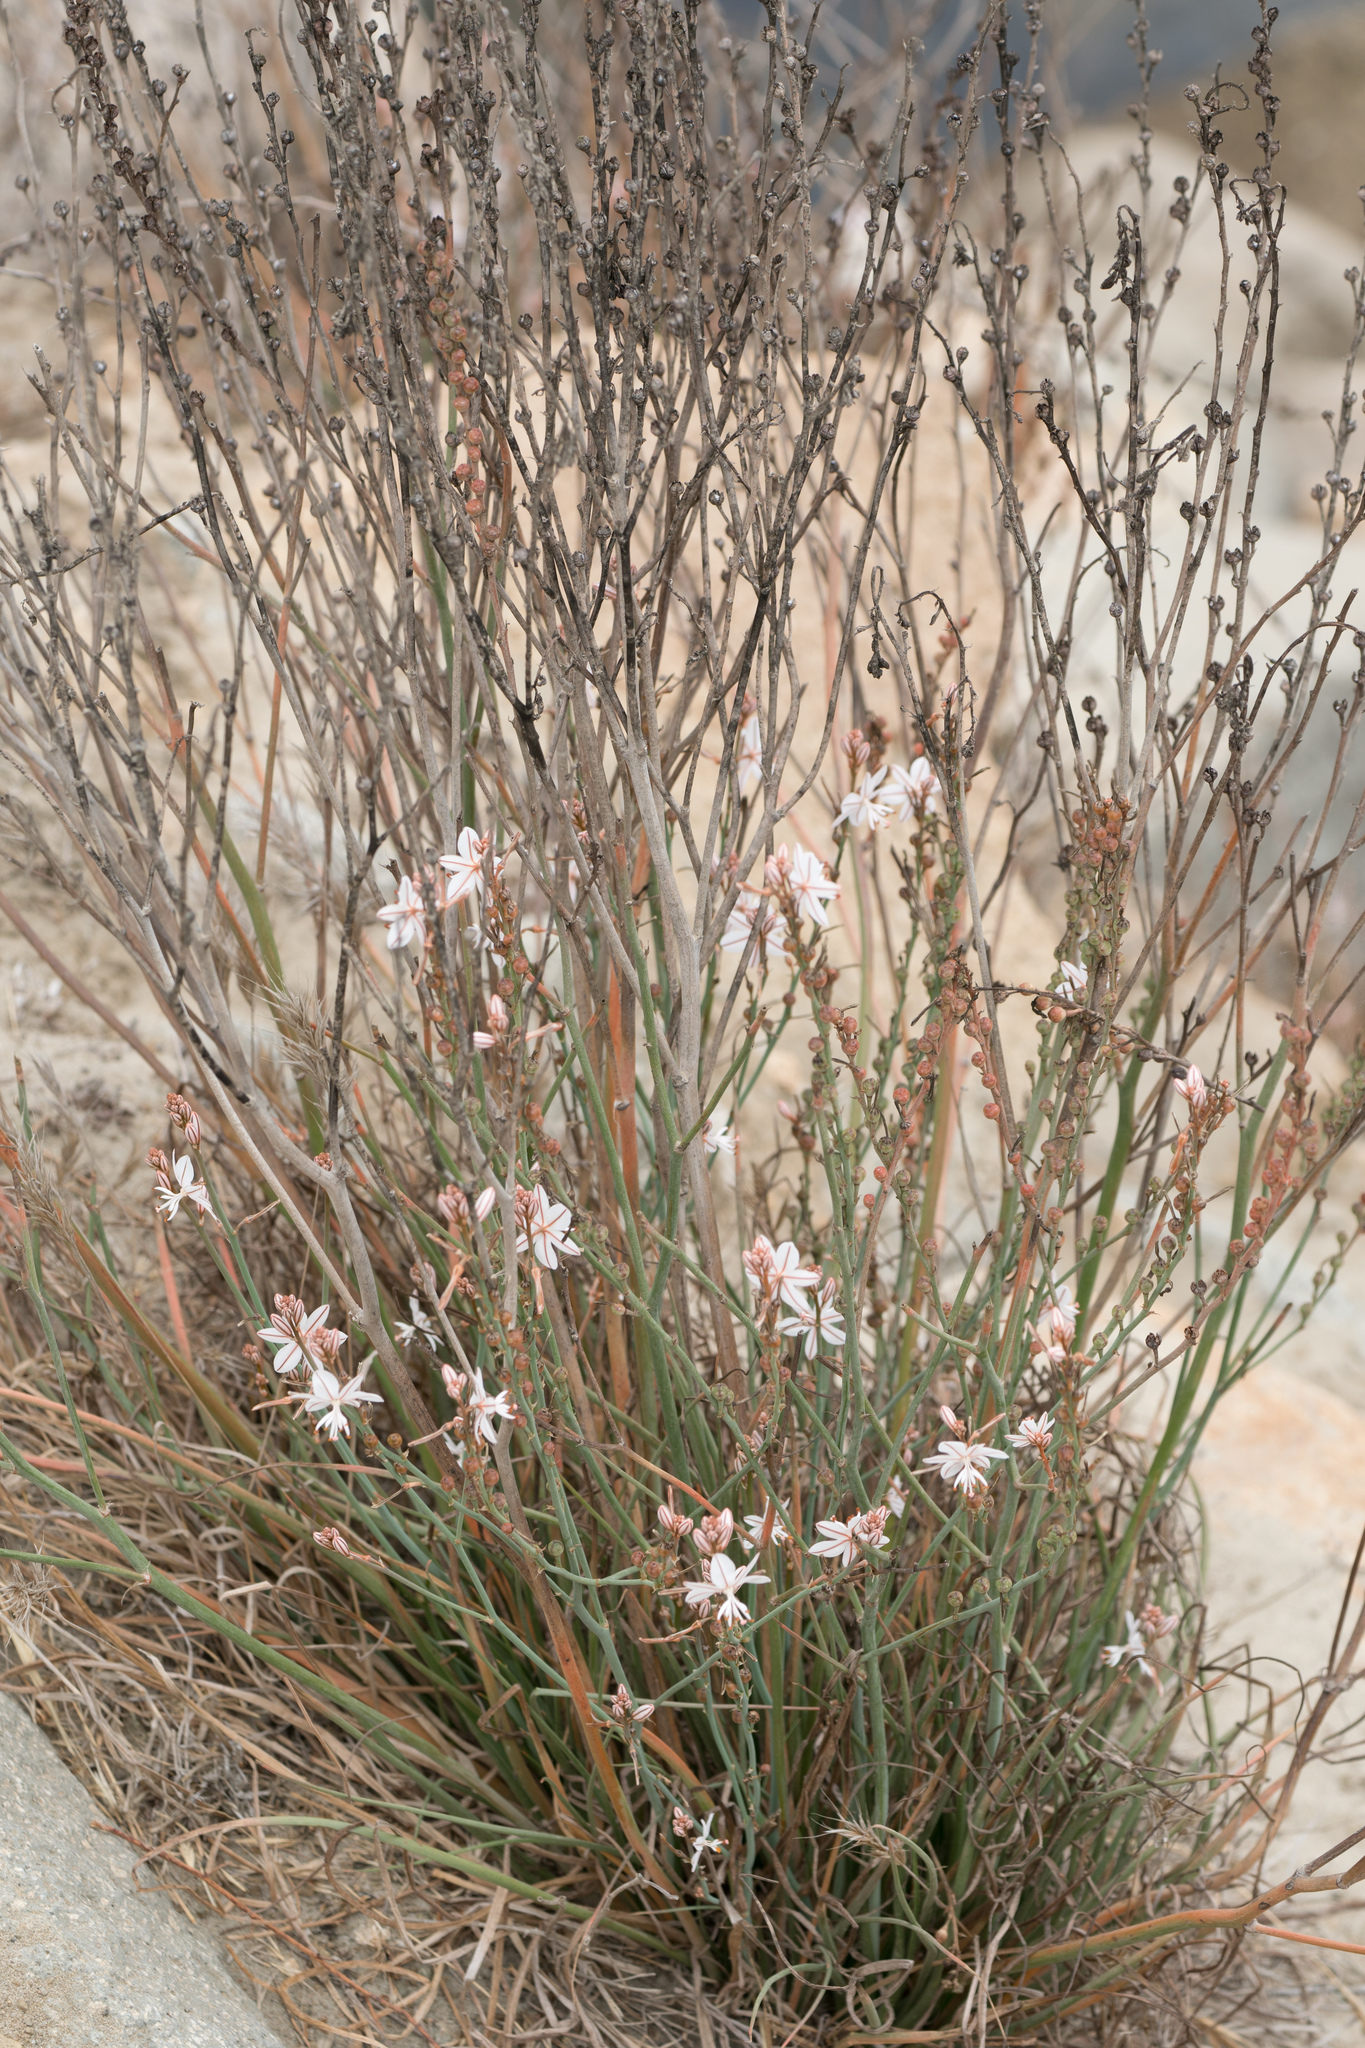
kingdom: Plantae
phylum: Tracheophyta
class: Liliopsida
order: Asparagales
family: Asphodelaceae
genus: Asphodelus
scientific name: Asphodelus fistulosus
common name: Onionweed
